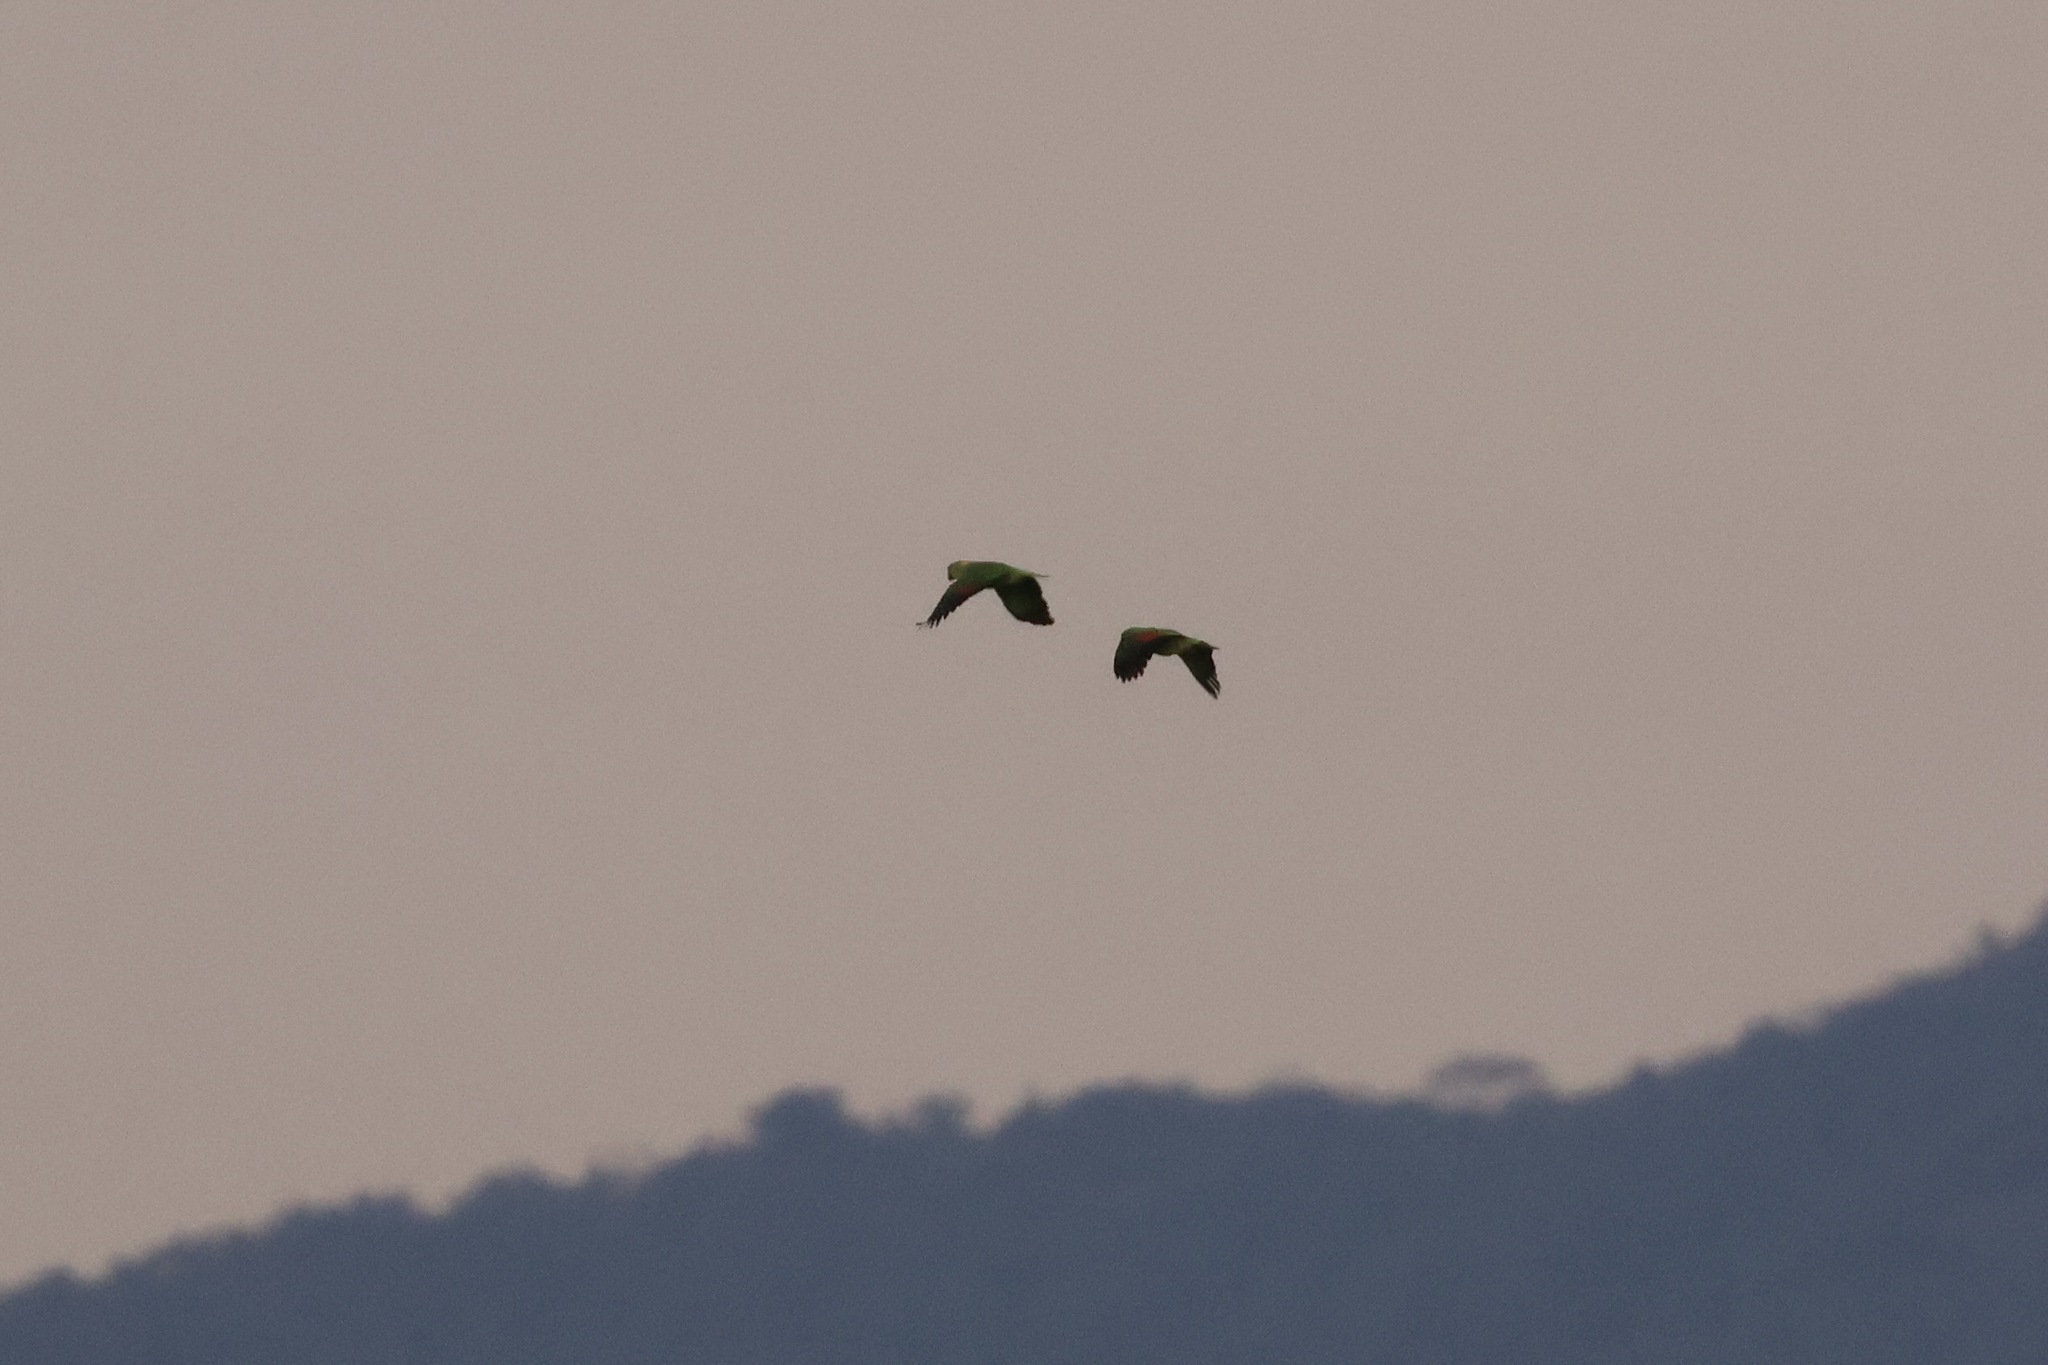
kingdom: Animalia
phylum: Chordata
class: Aves
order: Psittaciformes
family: Psittacidae
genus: Amazona
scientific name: Amazona auropalliata
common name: Yellow-naped amazon
